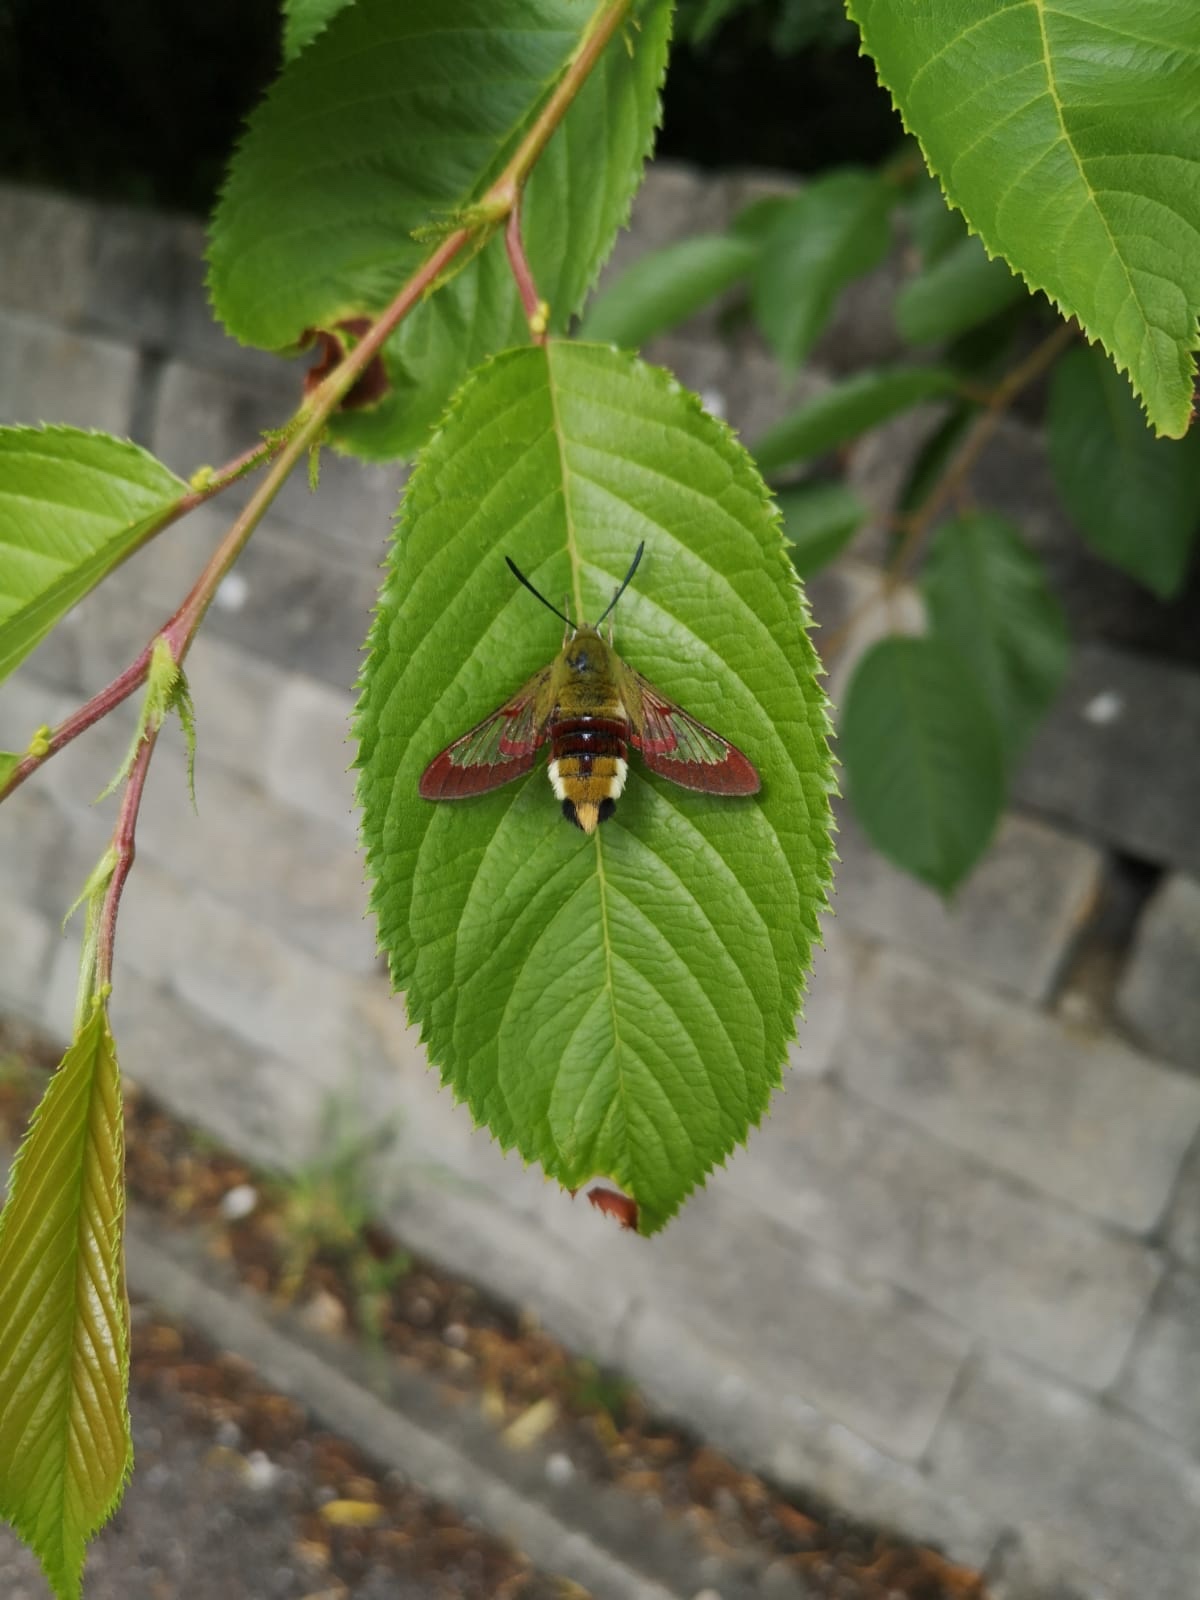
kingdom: Animalia
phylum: Arthropoda
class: Insecta
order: Lepidoptera
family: Sphingidae
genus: Hemaris
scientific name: Hemaris fuciformis
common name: Broad-bordered bee hawk-moth
